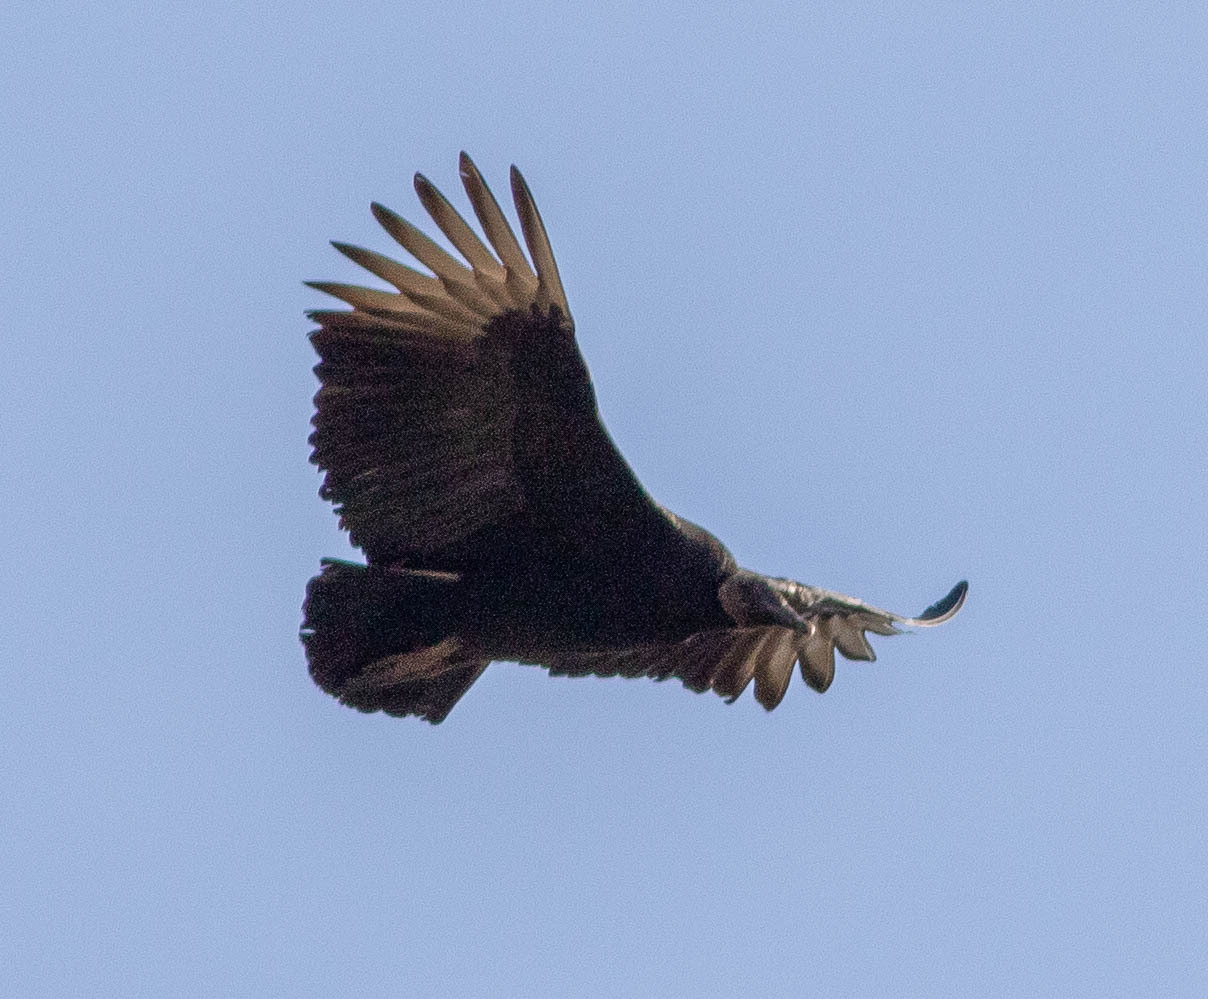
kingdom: Animalia
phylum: Chordata
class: Aves
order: Accipitriformes
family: Cathartidae
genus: Coragyps
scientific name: Coragyps atratus
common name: Black vulture
